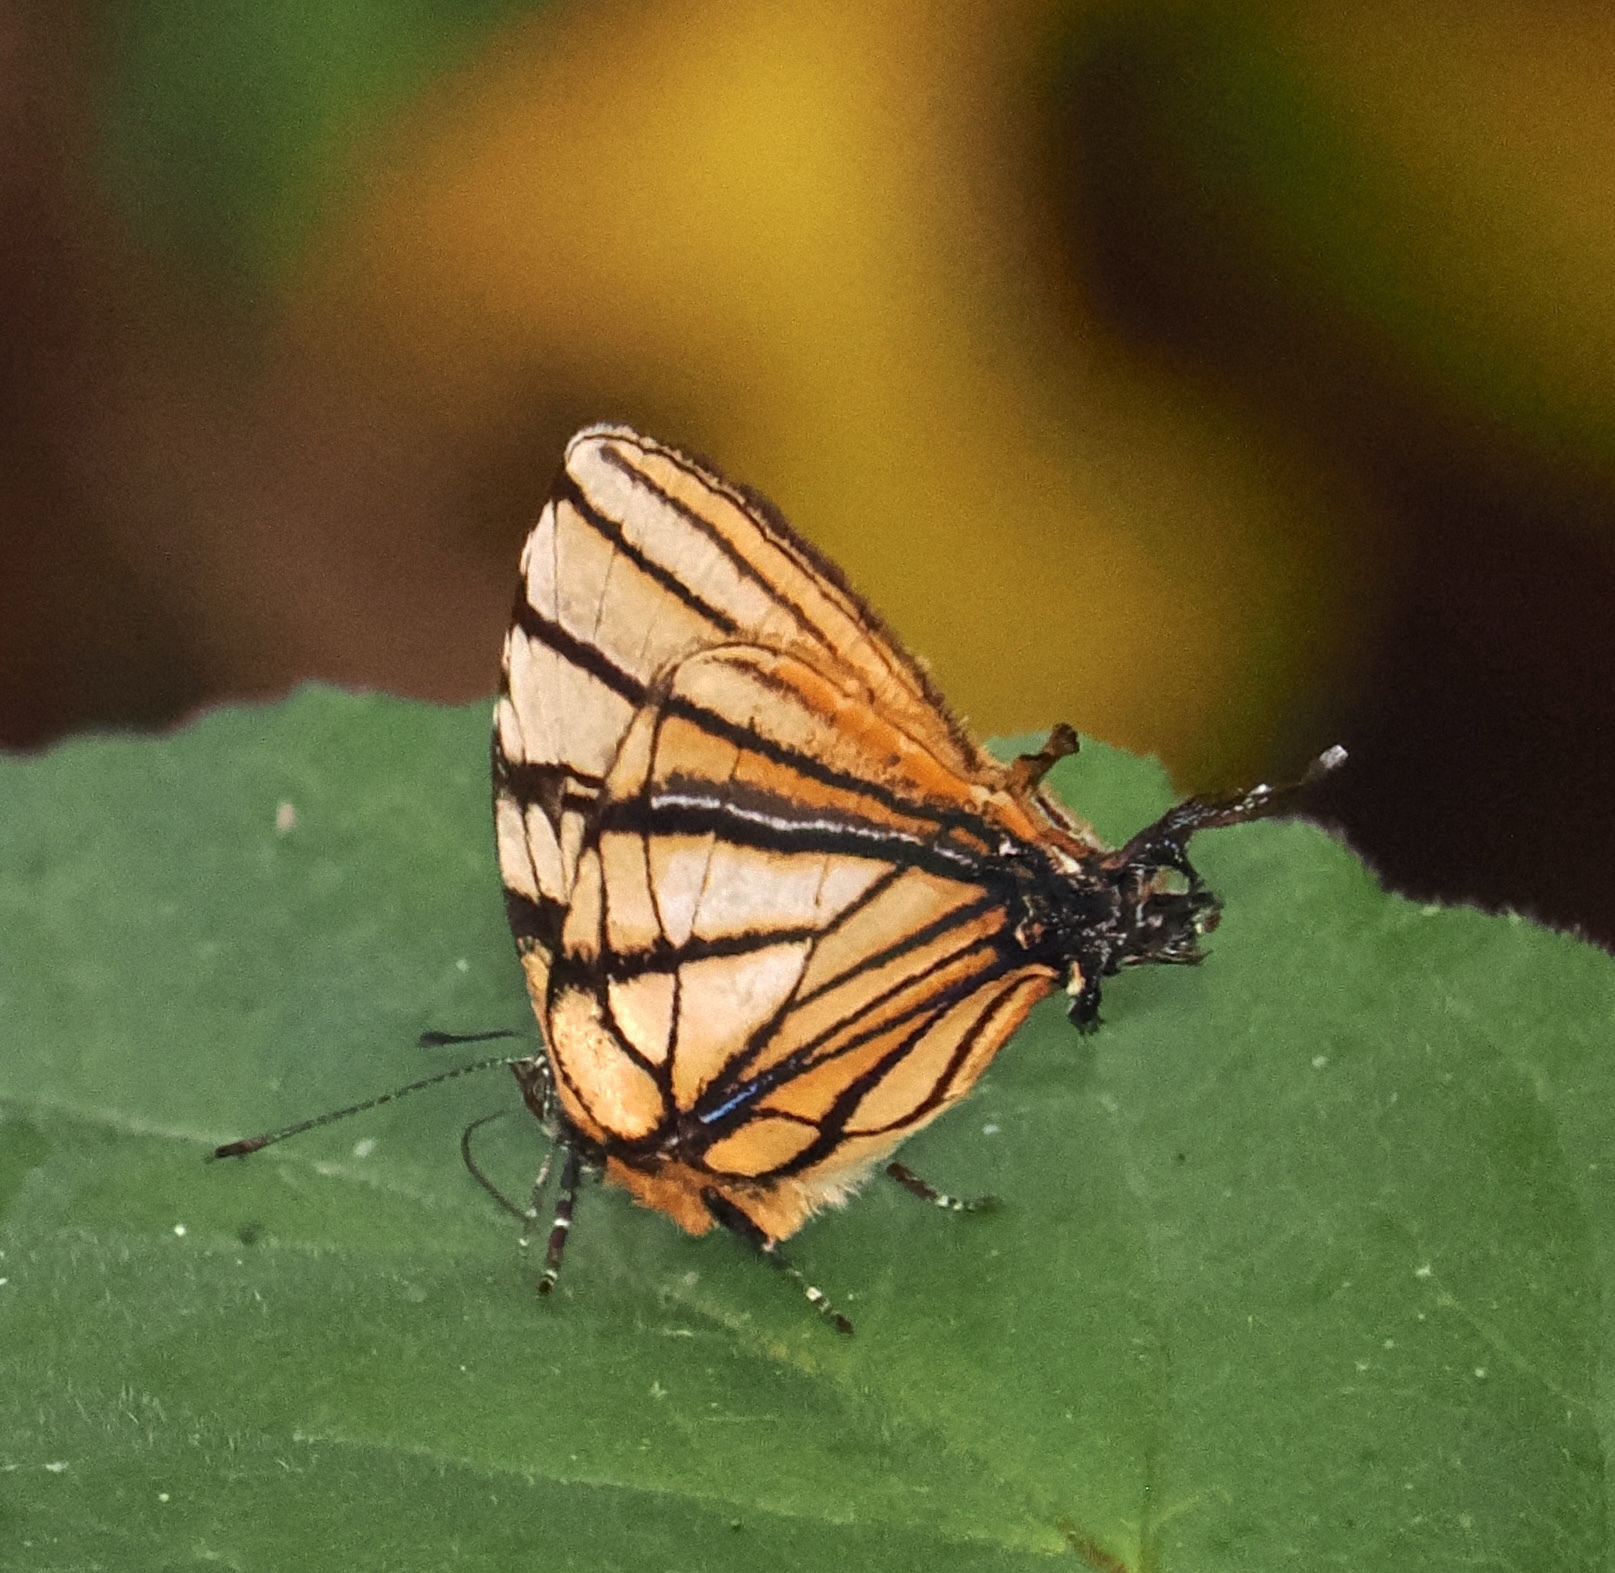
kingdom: Animalia
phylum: Arthropoda
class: Insecta
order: Lepidoptera
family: Lycaenidae
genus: Arawacus
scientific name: Arawacus melibaeus
